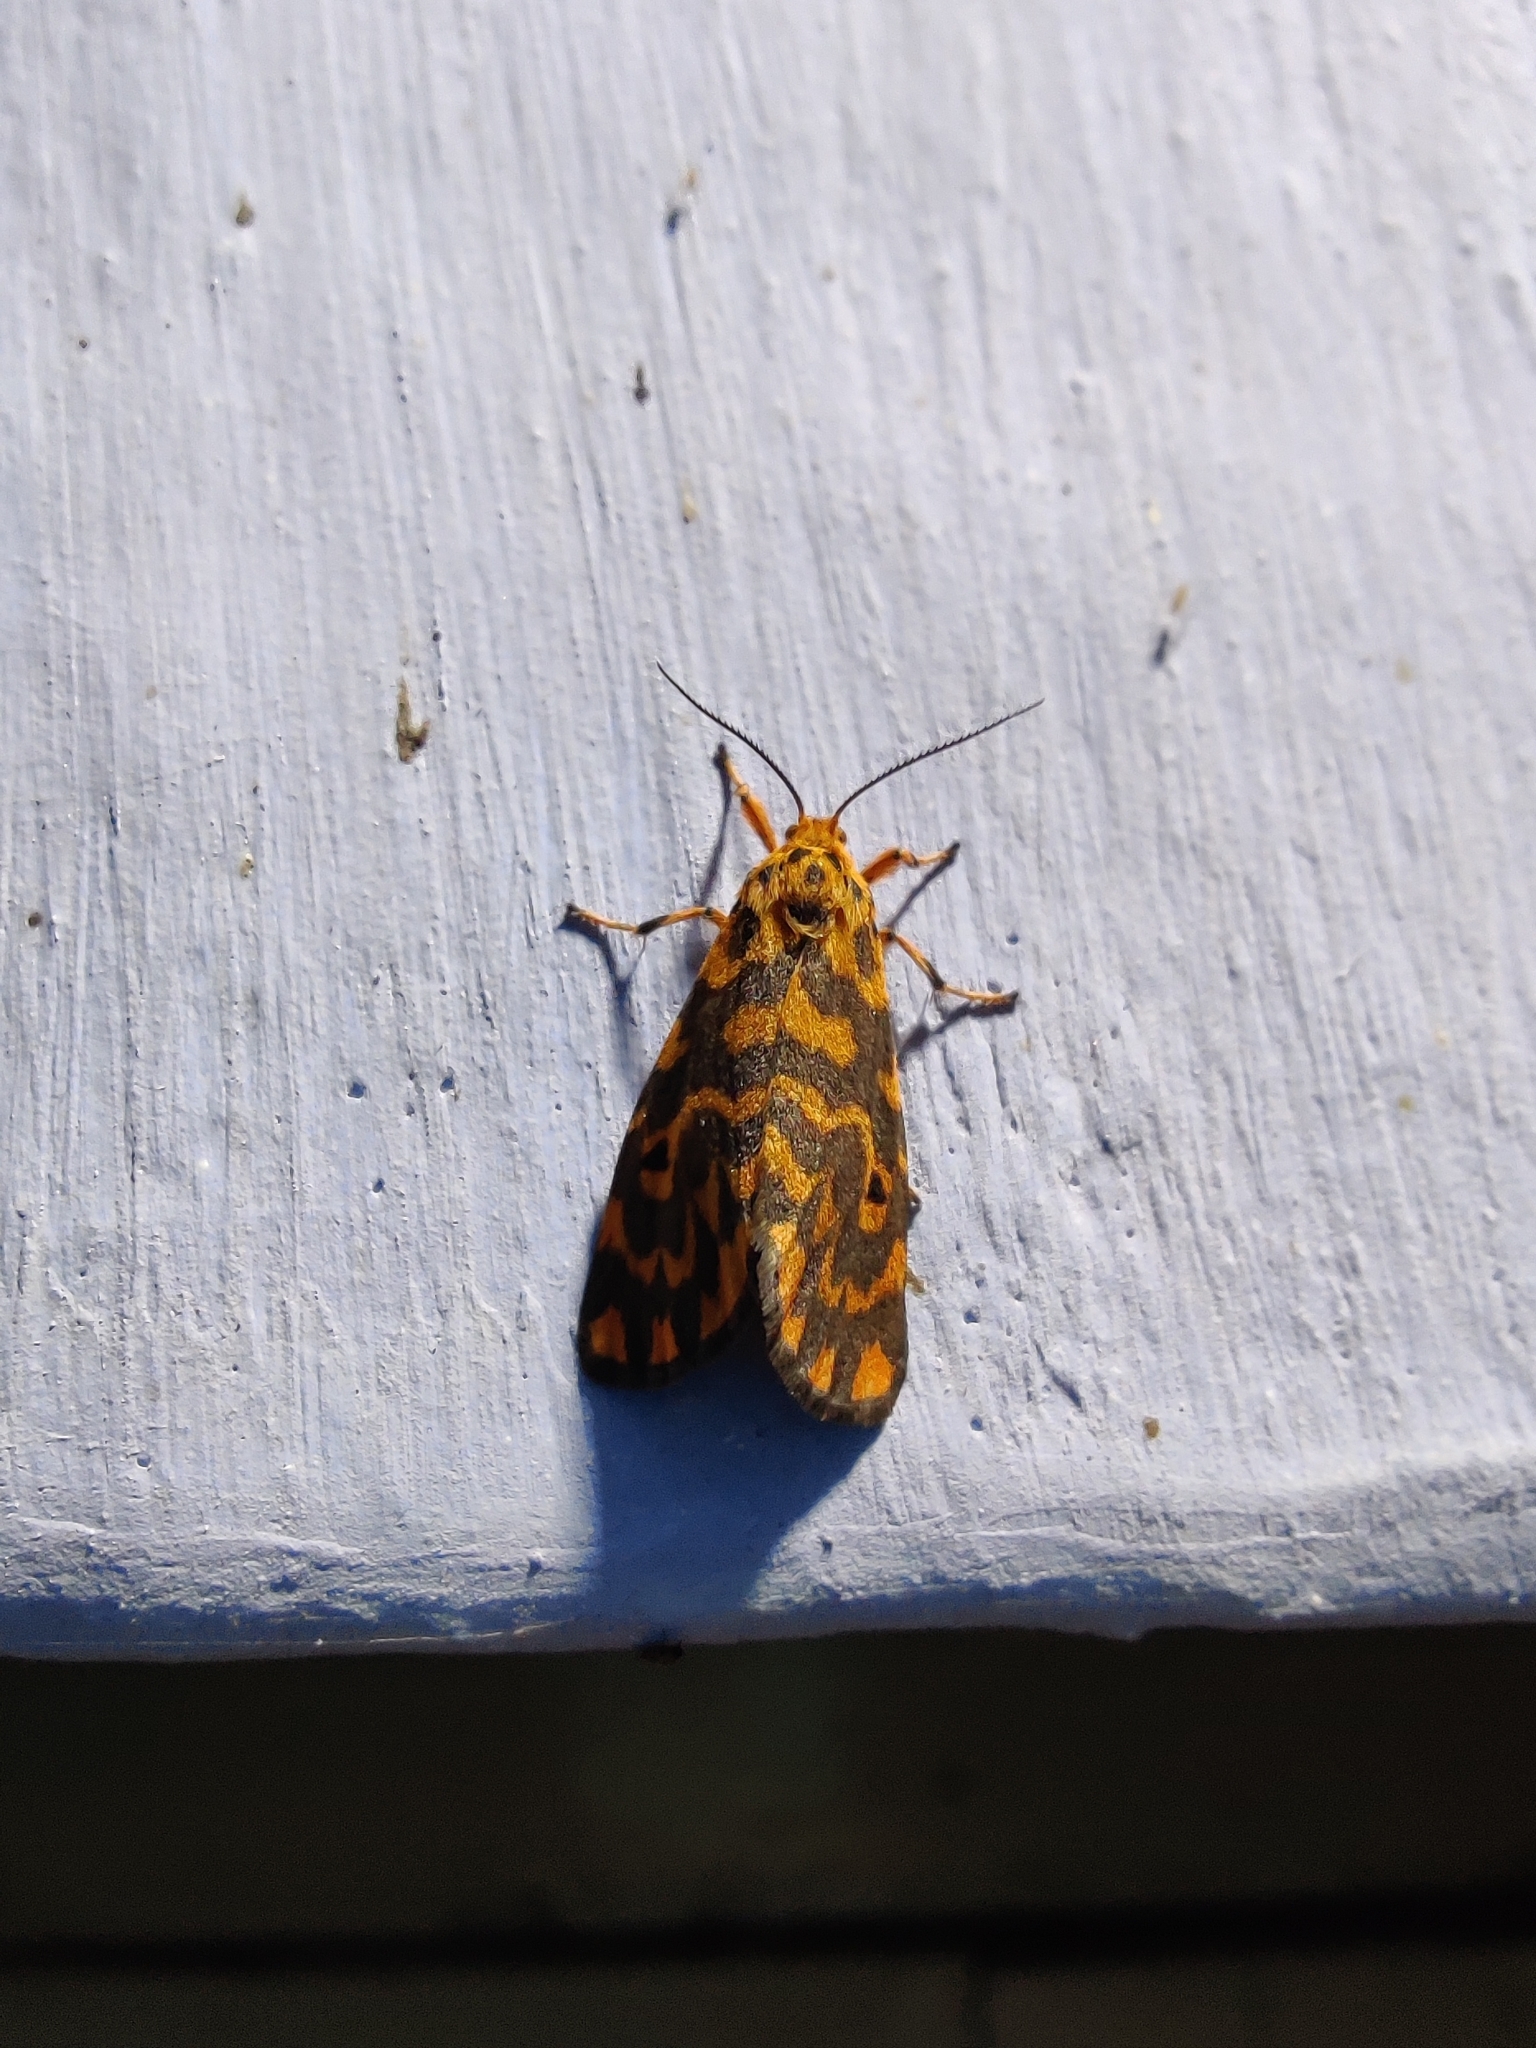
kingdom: Animalia
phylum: Arthropoda
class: Insecta
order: Lepidoptera
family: Erebidae
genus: Nepita
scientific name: Nepita conferta
